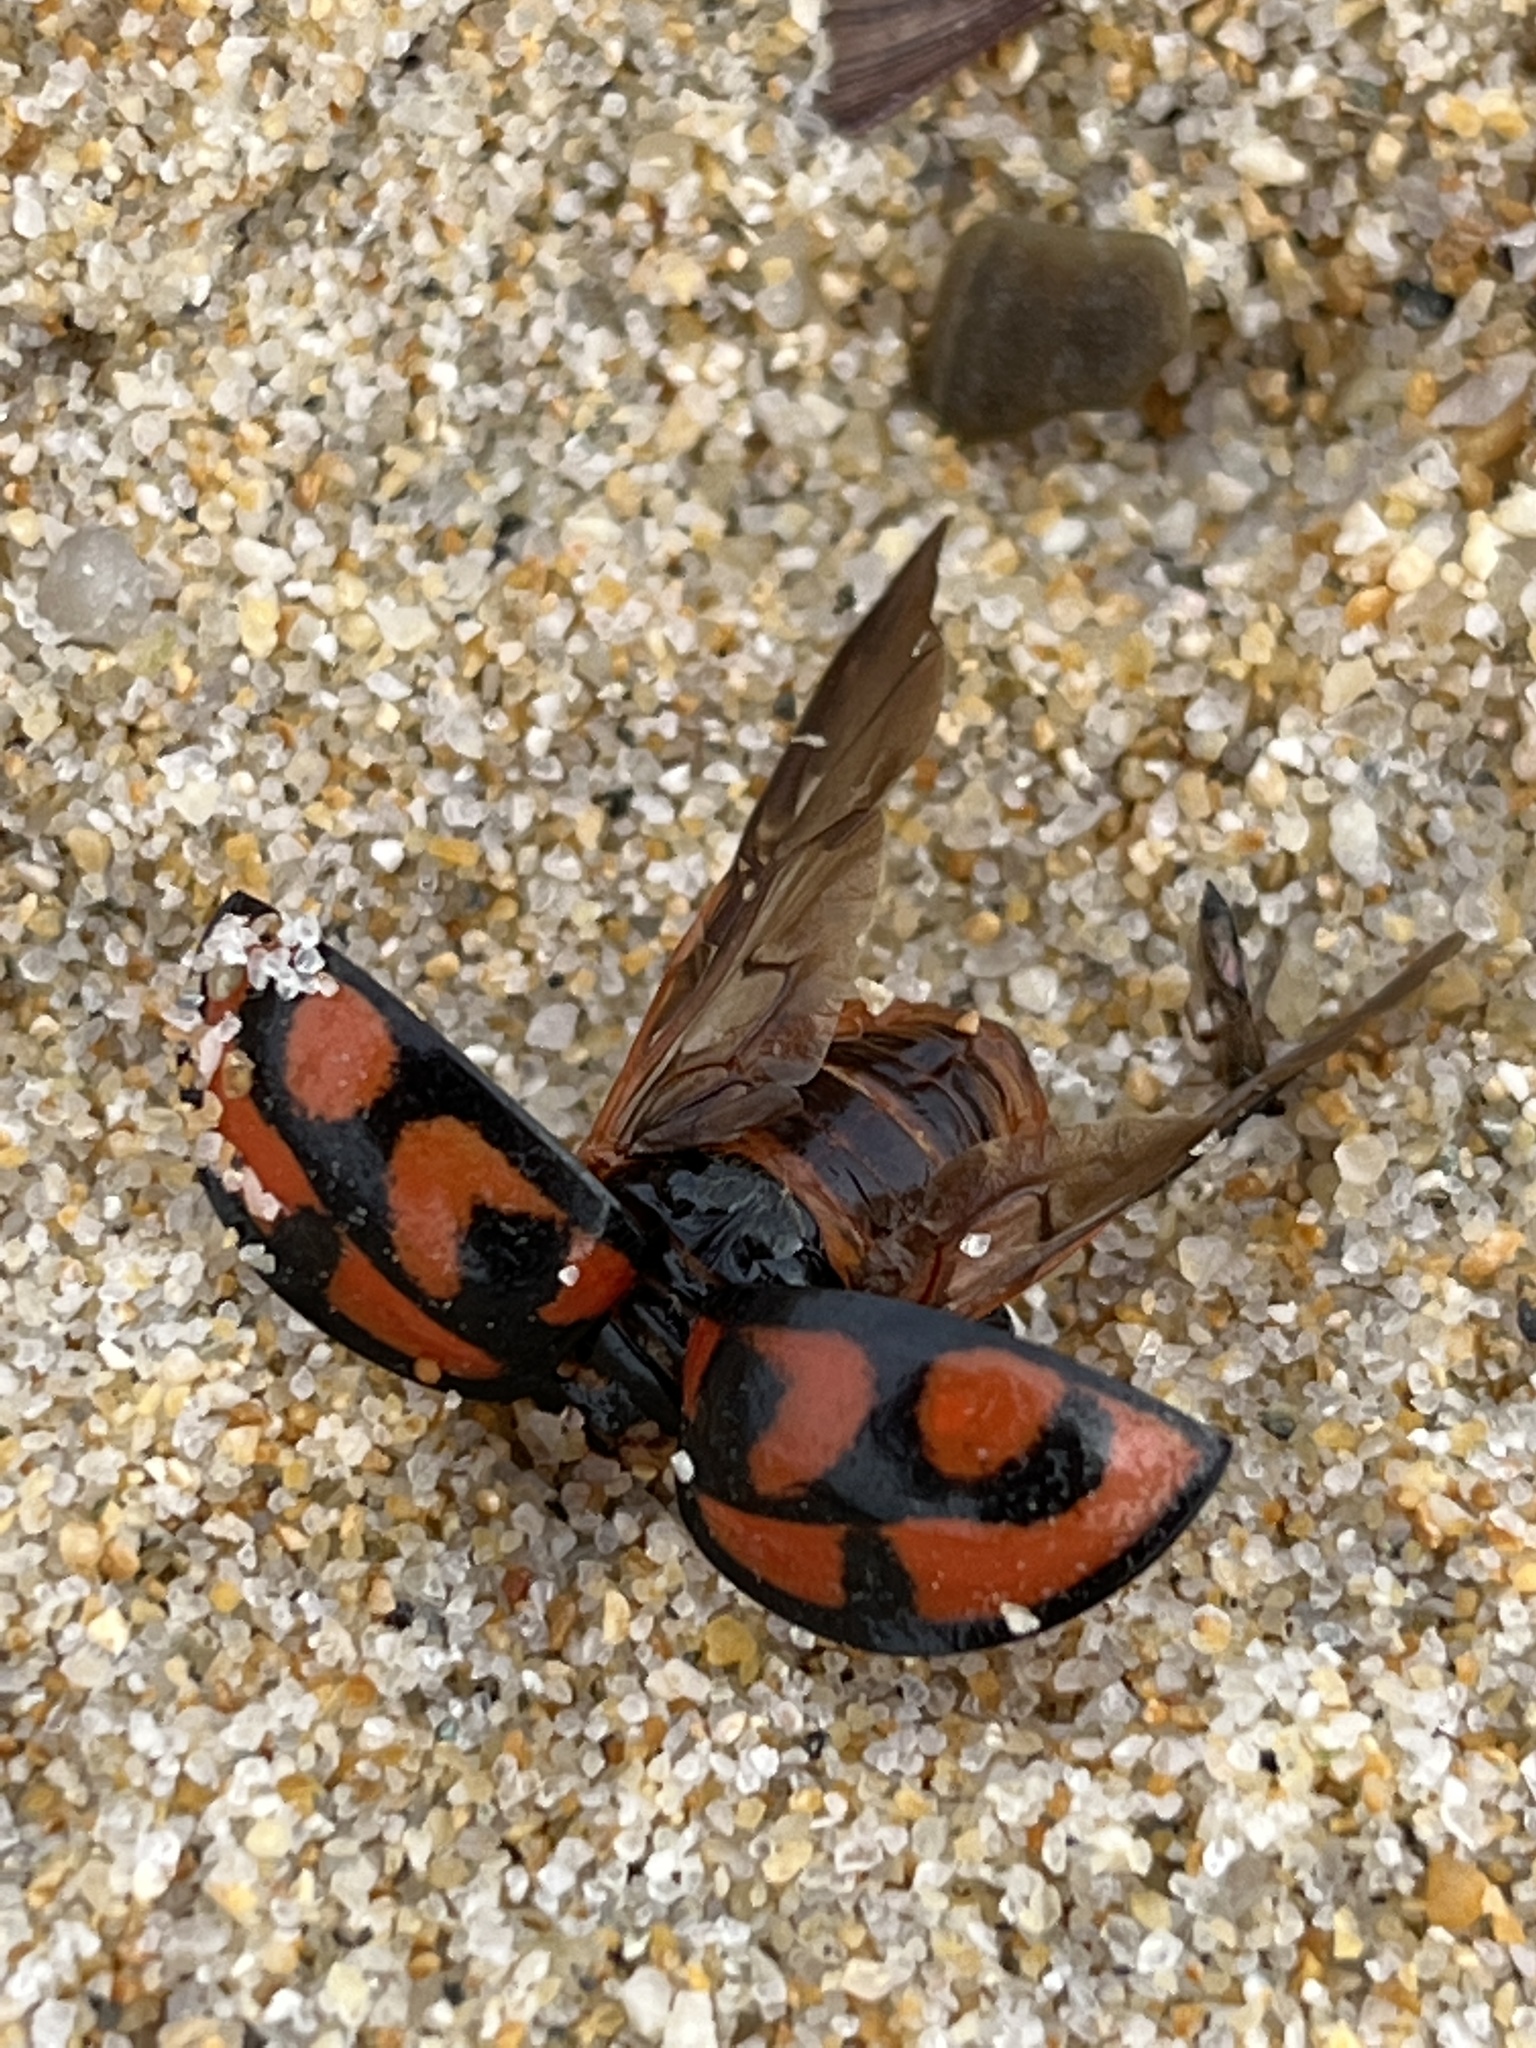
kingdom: Animalia
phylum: Arthropoda
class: Insecta
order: Coleoptera
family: Coccinellidae
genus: Aiolocaria
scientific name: Aiolocaria hexaspilota
